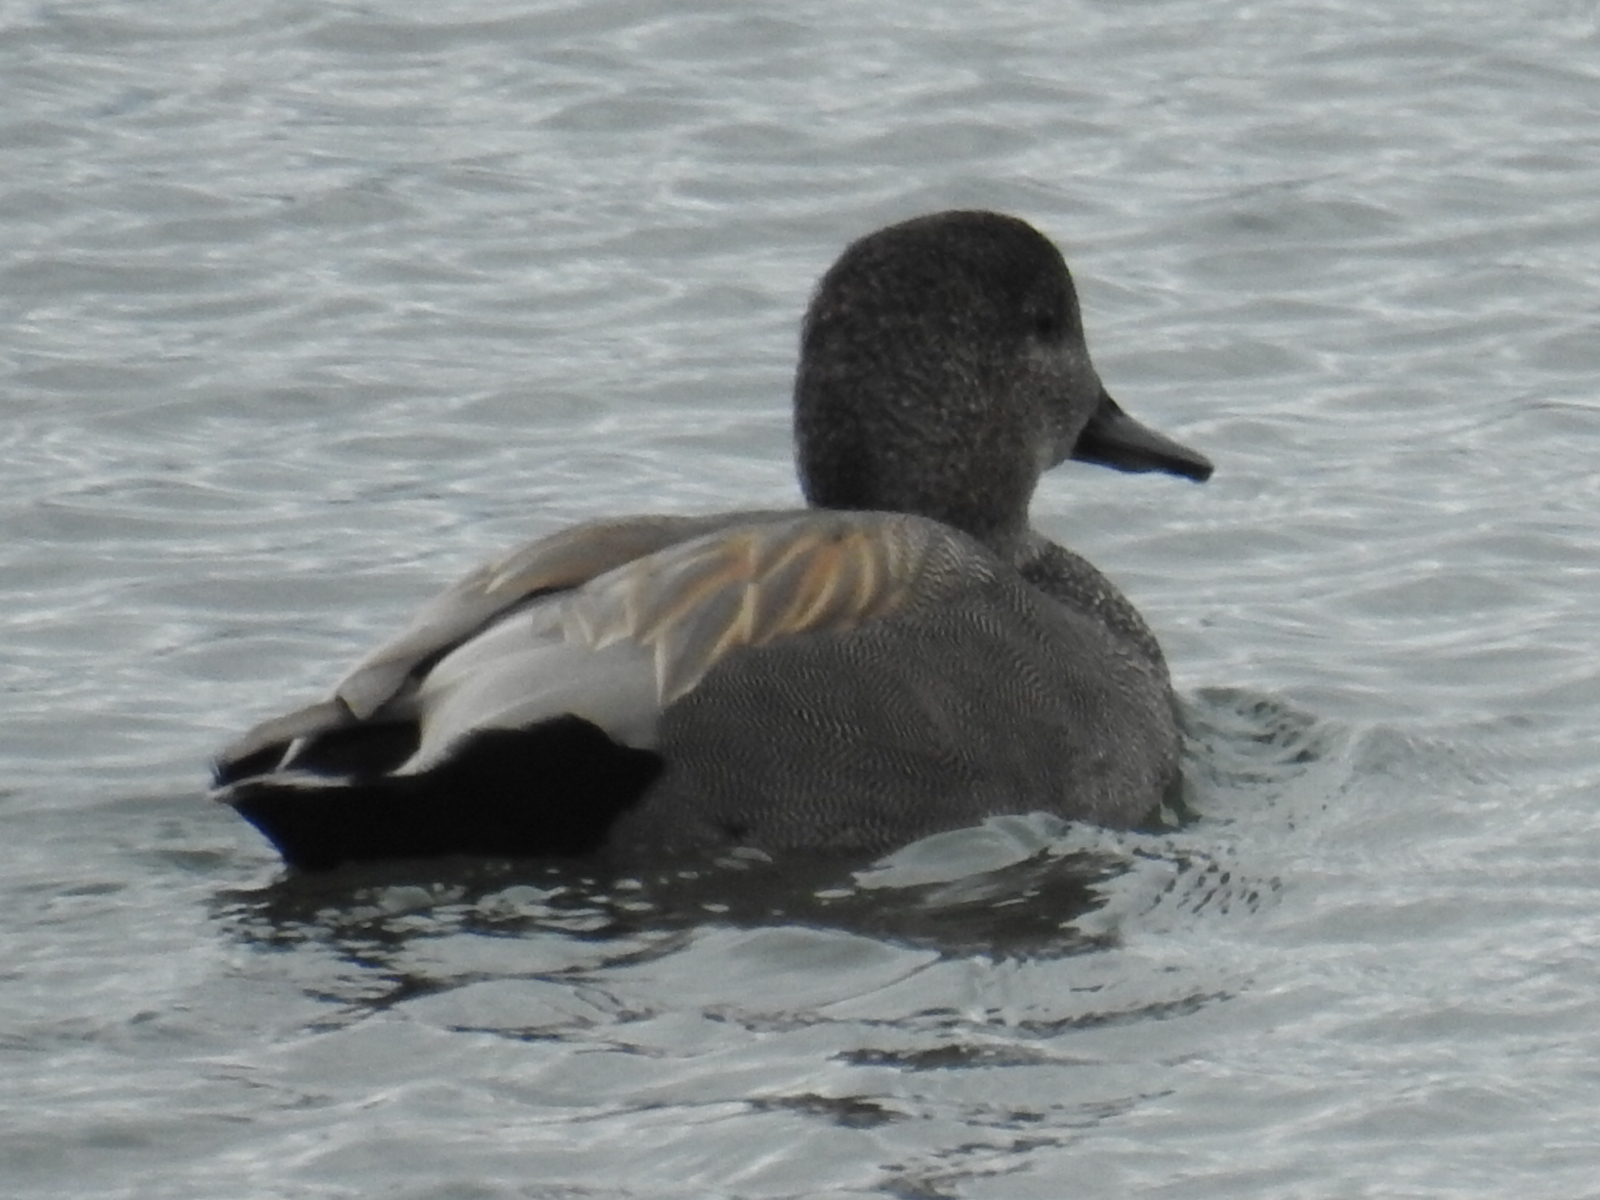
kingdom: Animalia
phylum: Chordata
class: Aves
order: Anseriformes
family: Anatidae
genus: Mareca
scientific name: Mareca strepera
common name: Gadwall
